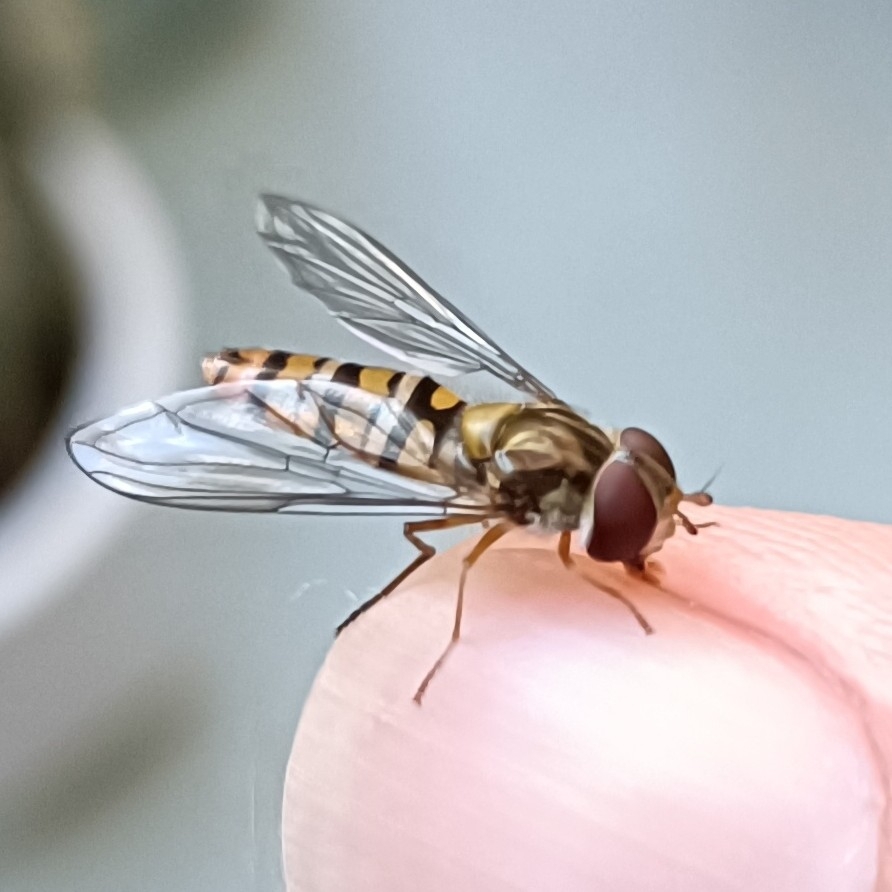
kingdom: Animalia
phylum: Arthropoda
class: Insecta
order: Diptera
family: Syrphidae
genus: Episyrphus
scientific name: Episyrphus balteatus
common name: Marmalade hoverfly
